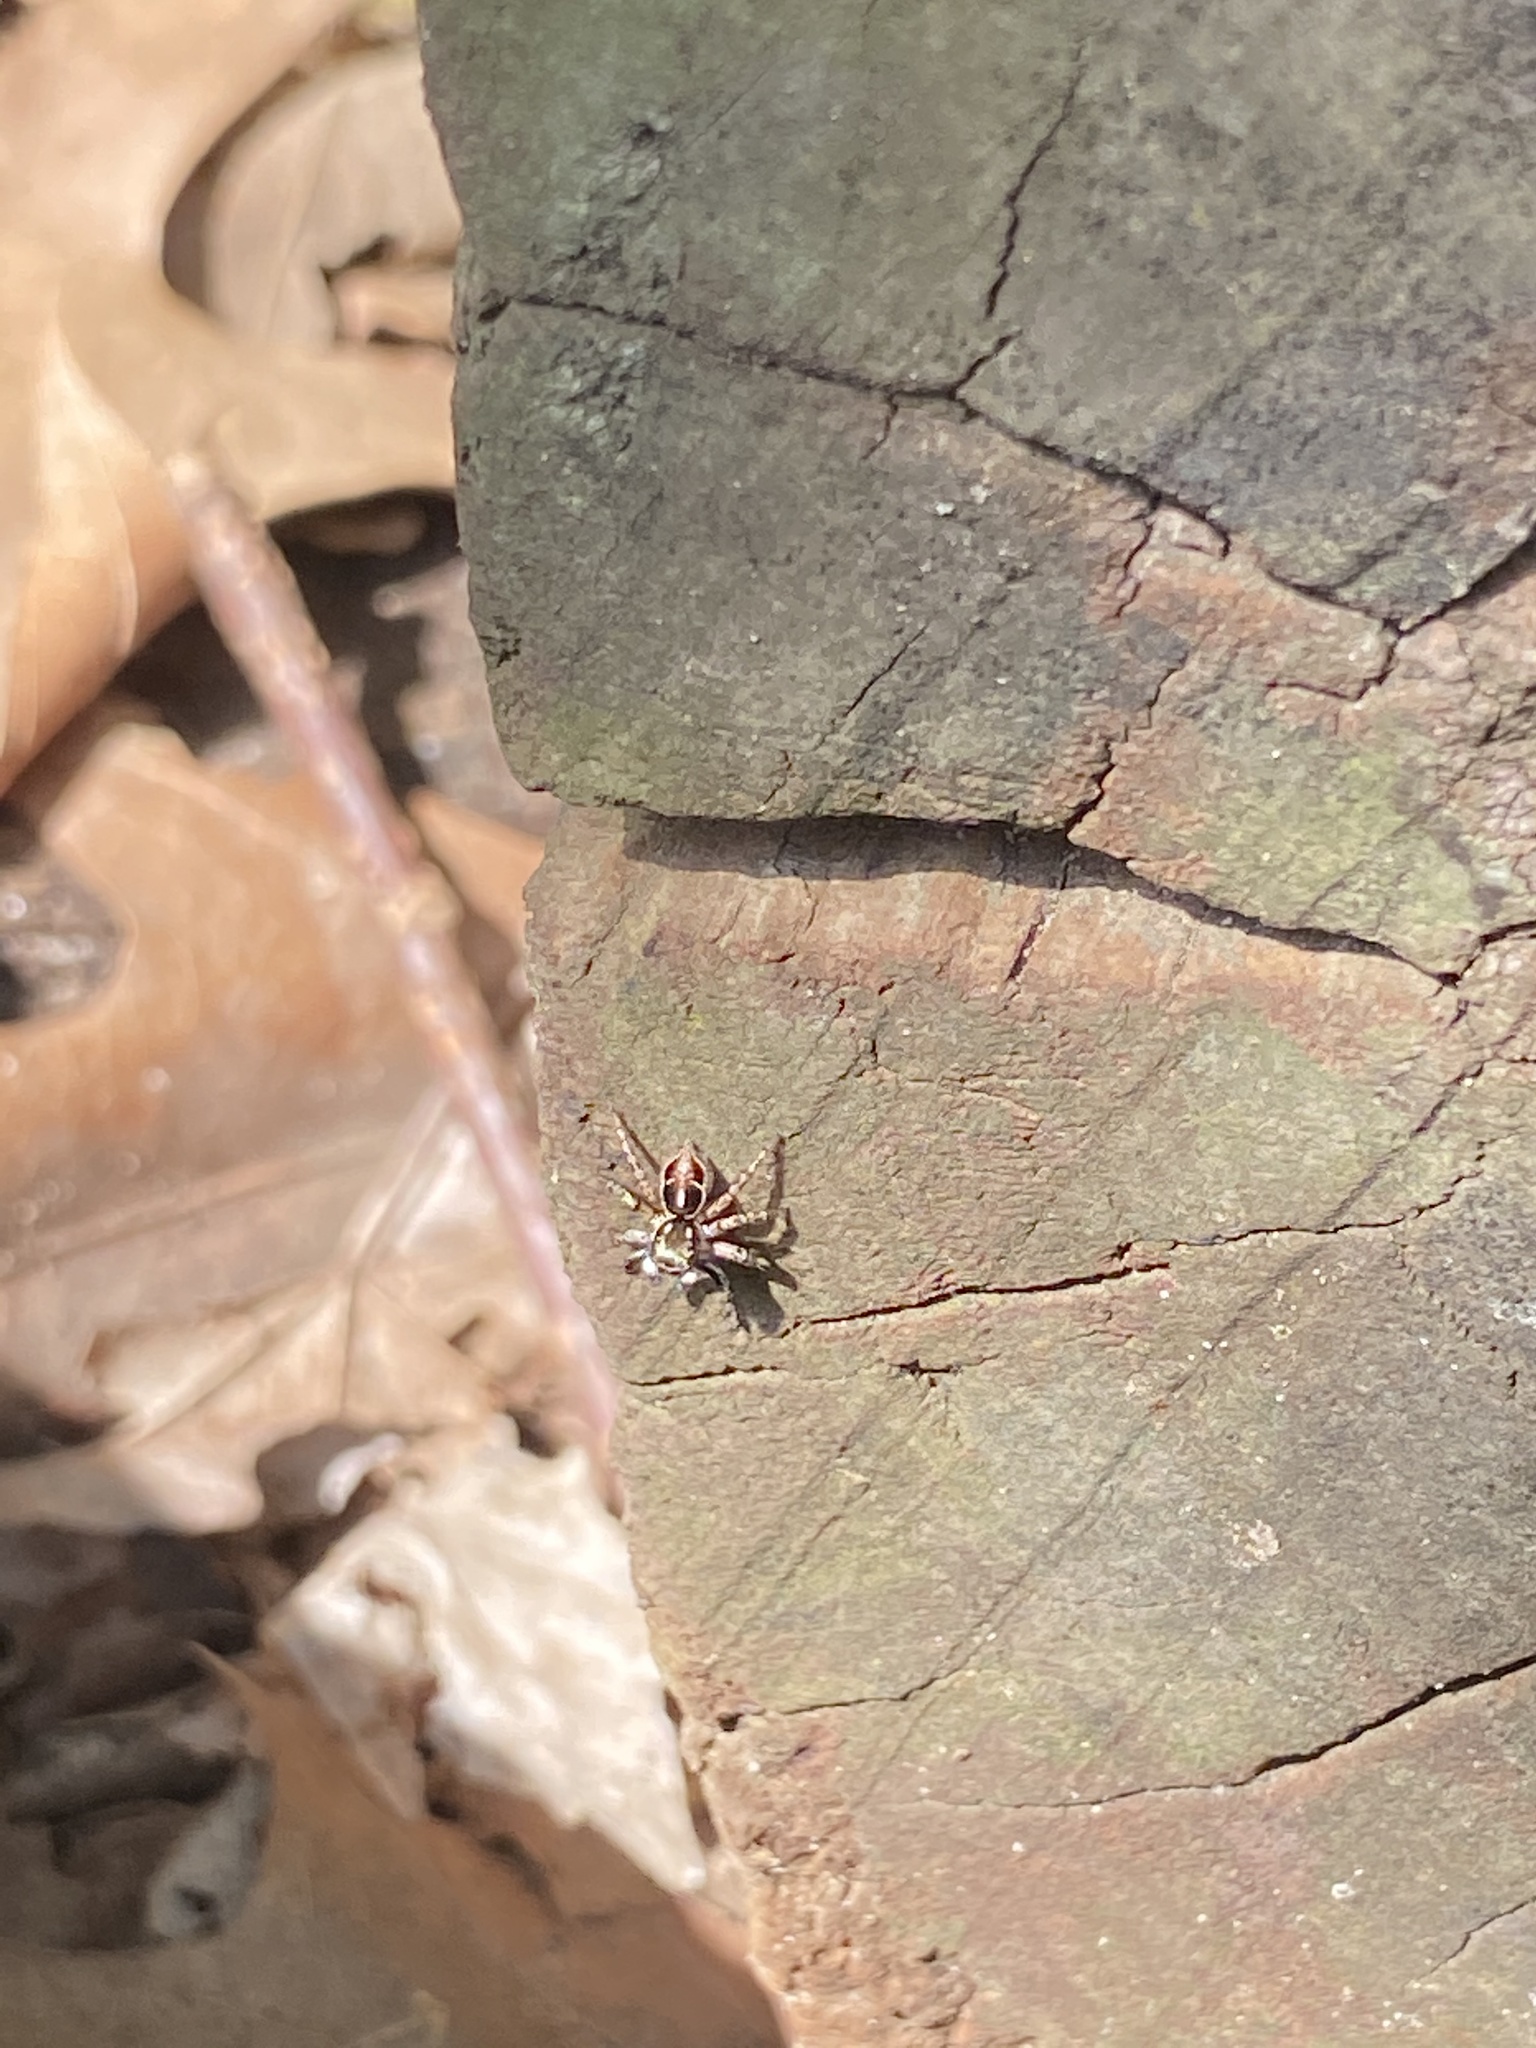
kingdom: Animalia
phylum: Arthropoda
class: Arachnida
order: Araneae
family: Salticidae
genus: Anasaitis
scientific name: Anasaitis canosa
